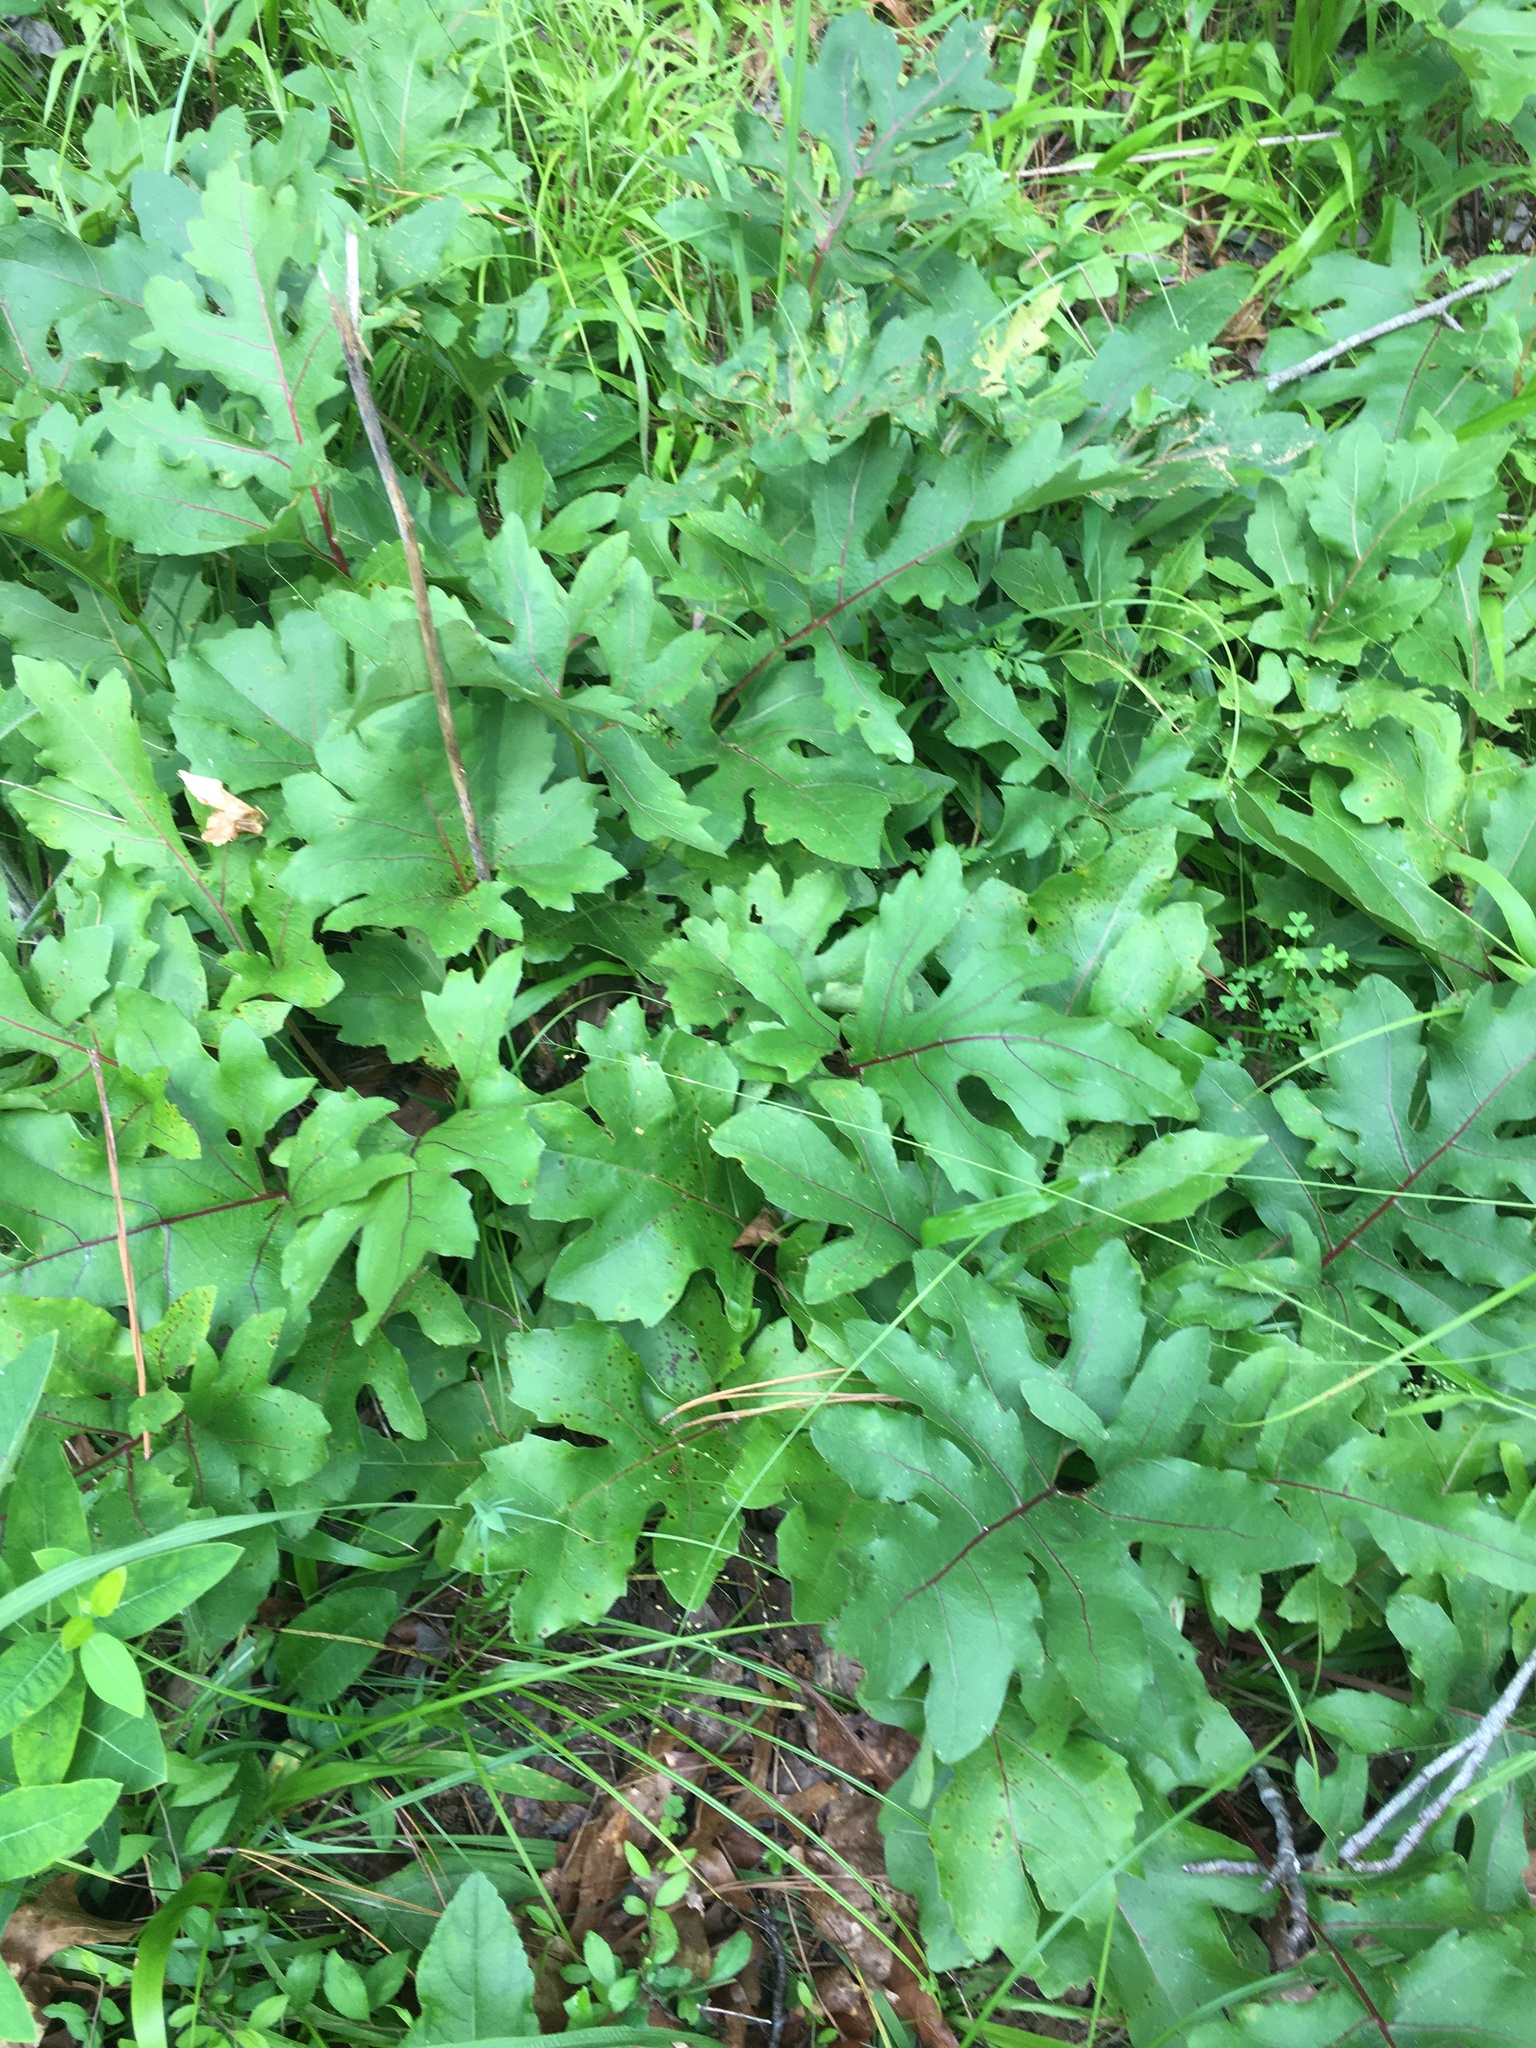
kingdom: Plantae
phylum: Tracheophyta
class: Magnoliopsida
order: Asterales
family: Asteraceae
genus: Silphium
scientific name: Silphium compositum
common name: Lesser basal-leaf rosinweed
